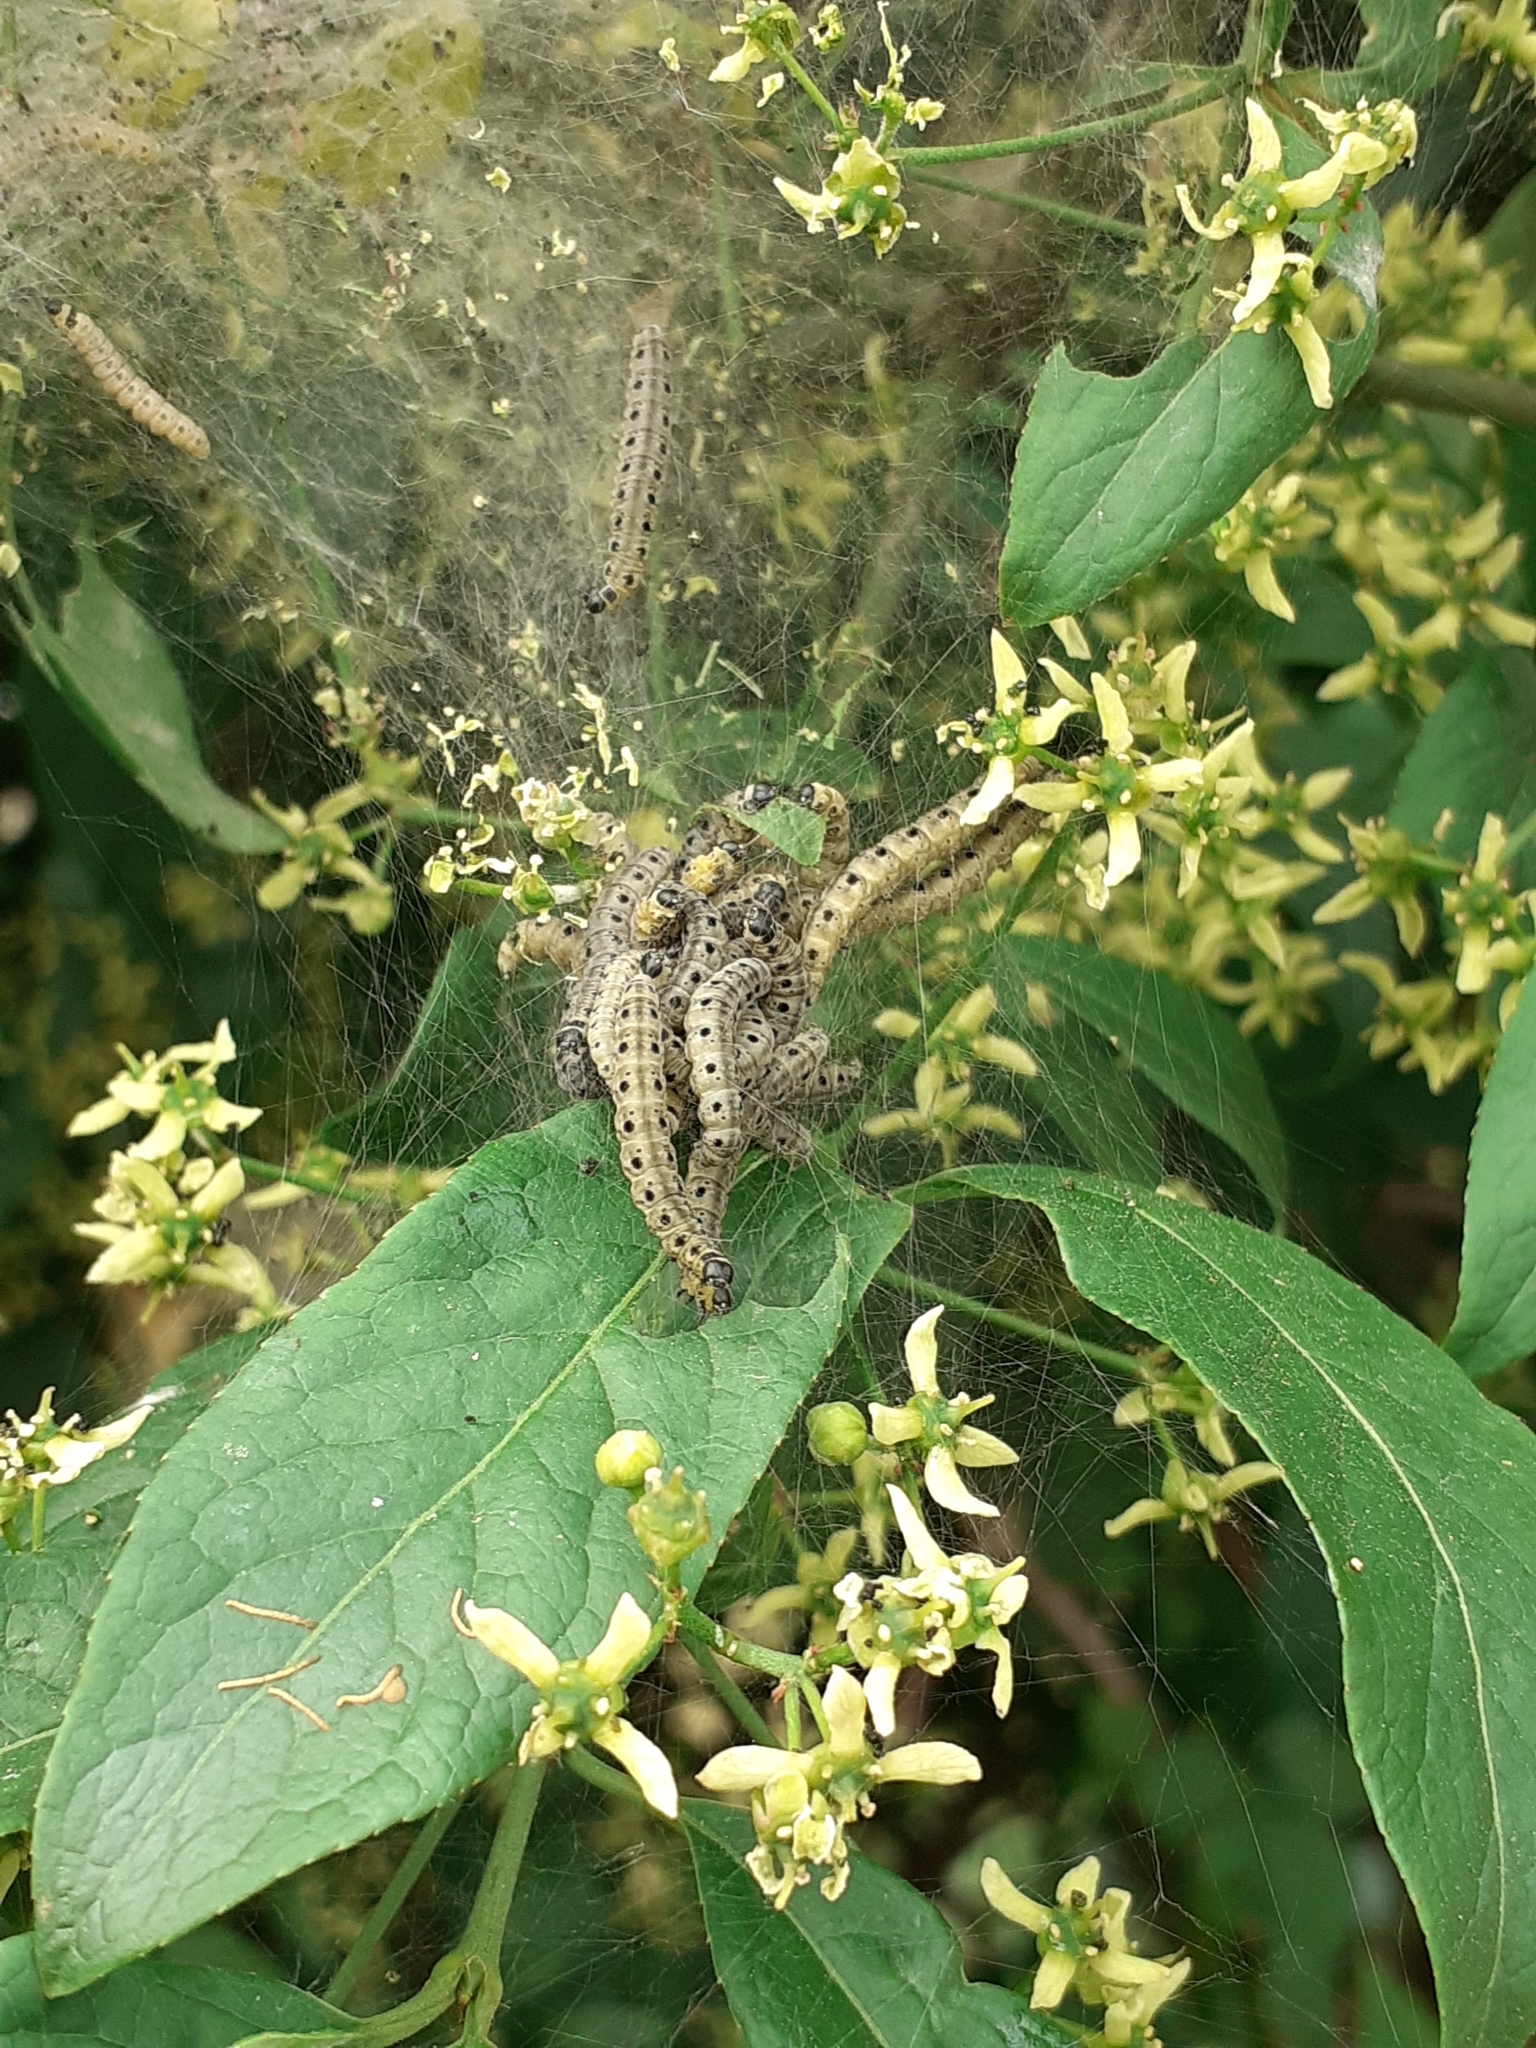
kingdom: Animalia
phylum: Arthropoda
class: Insecta
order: Lepidoptera
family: Yponomeutidae
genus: Yponomeuta
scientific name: Yponomeuta cagnagellus
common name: Spindle ermine
